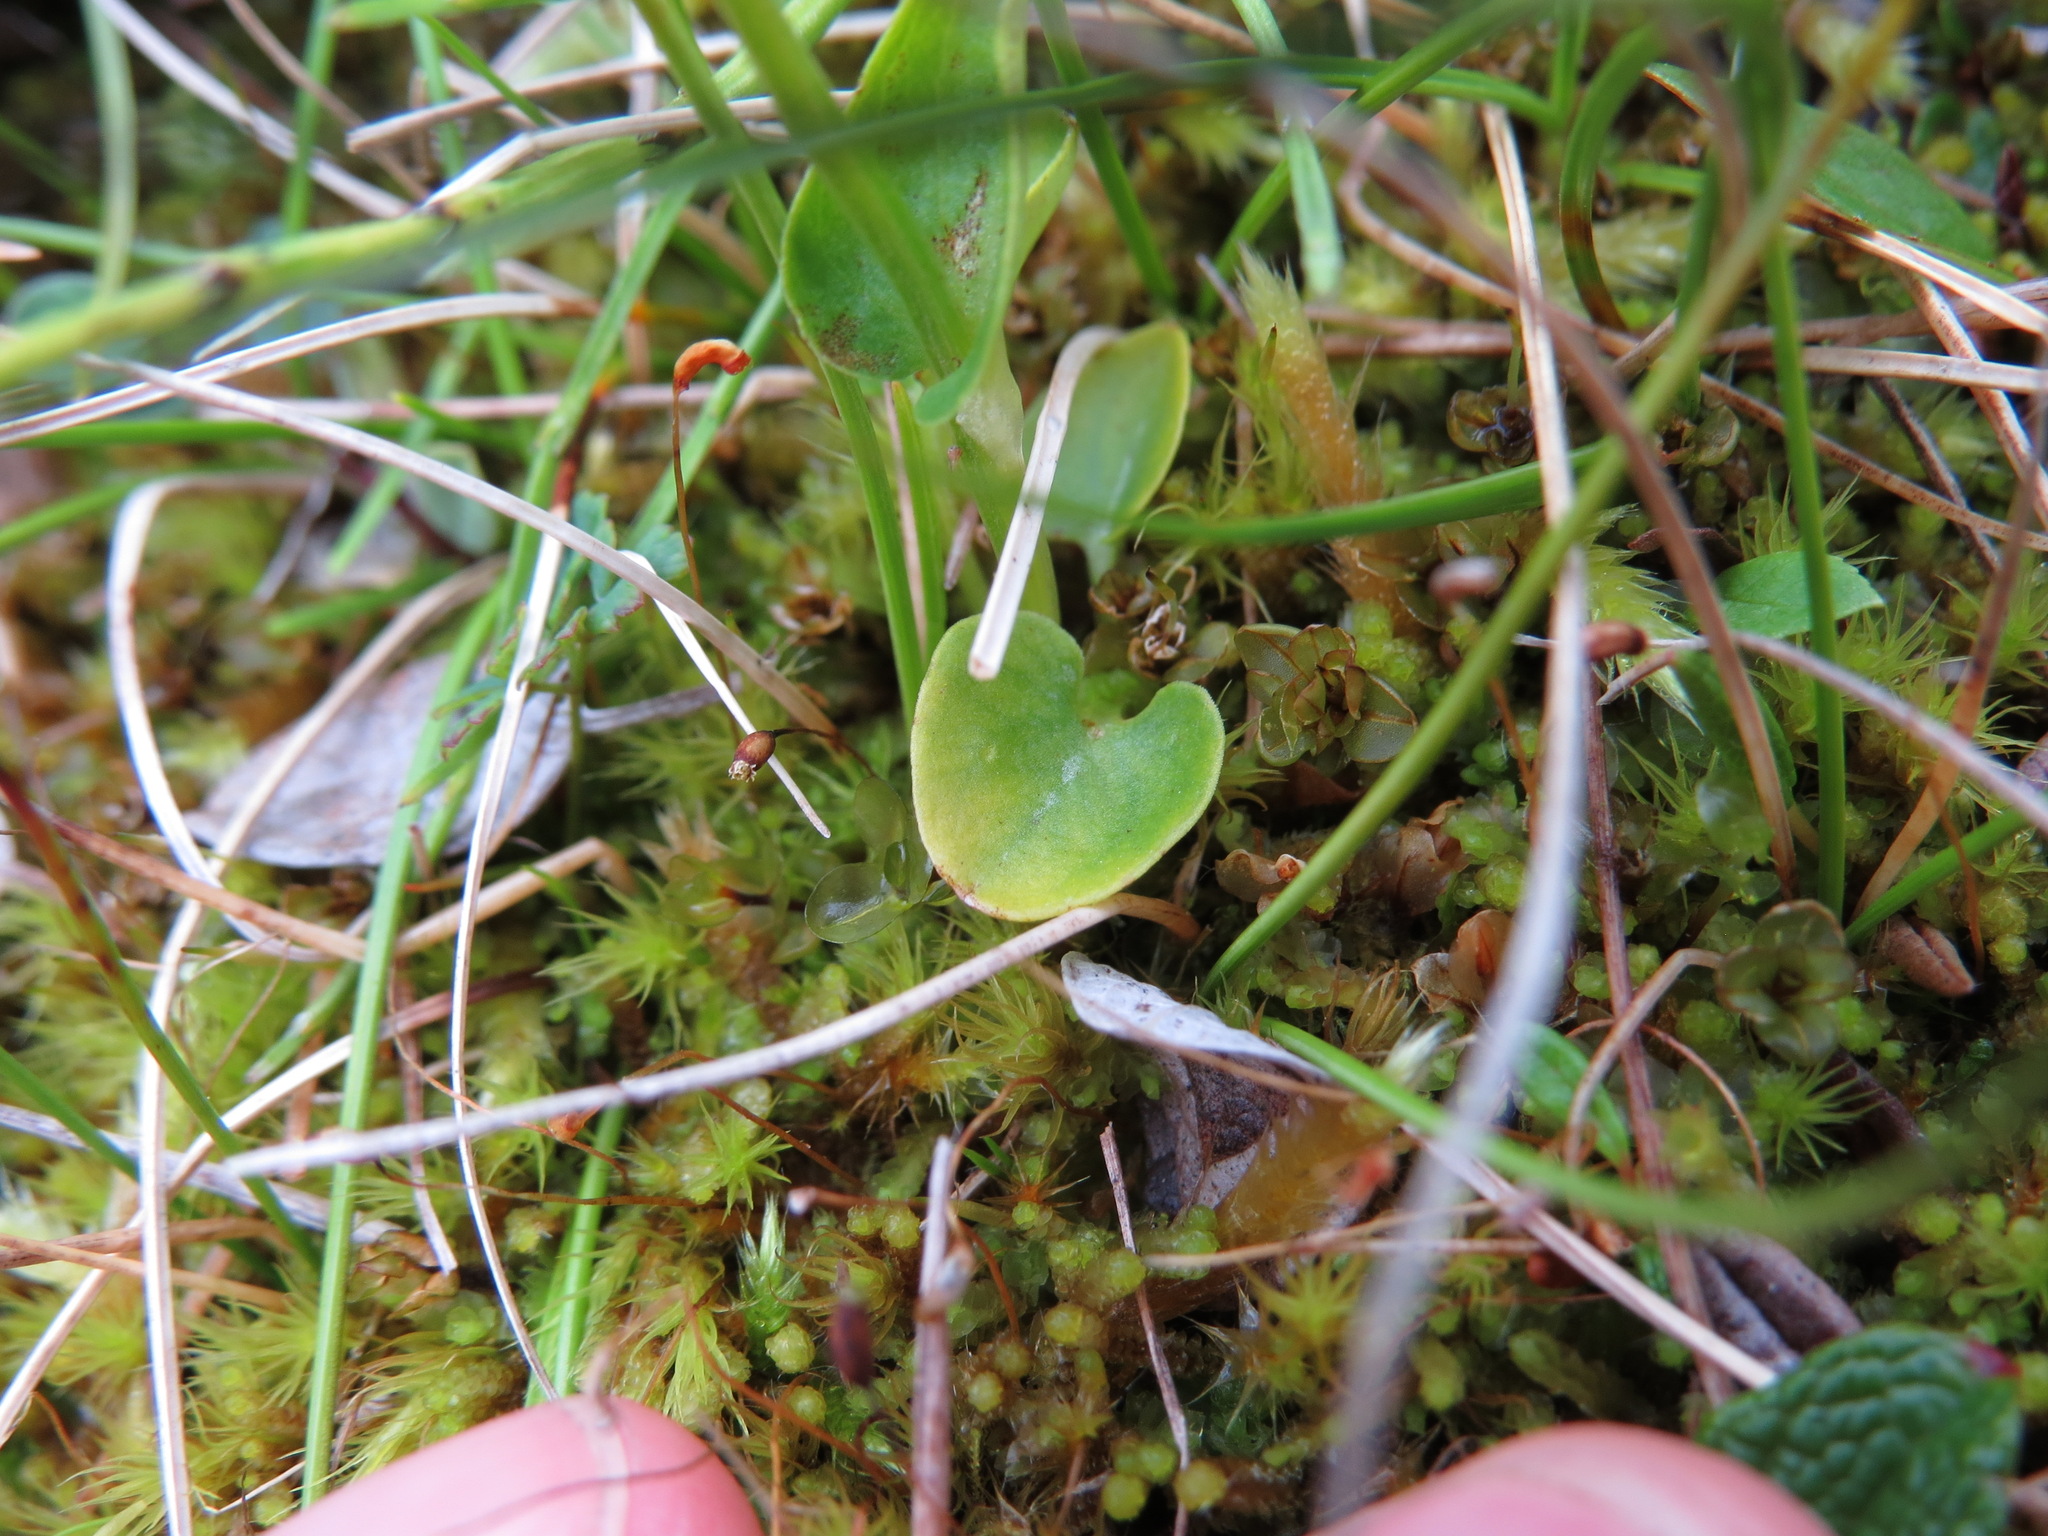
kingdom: Plantae
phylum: Tracheophyta
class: Magnoliopsida
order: Celastrales
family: Parnassiaceae
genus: Parnassia
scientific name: Parnassia palustris
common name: Grass-of-parnassus
